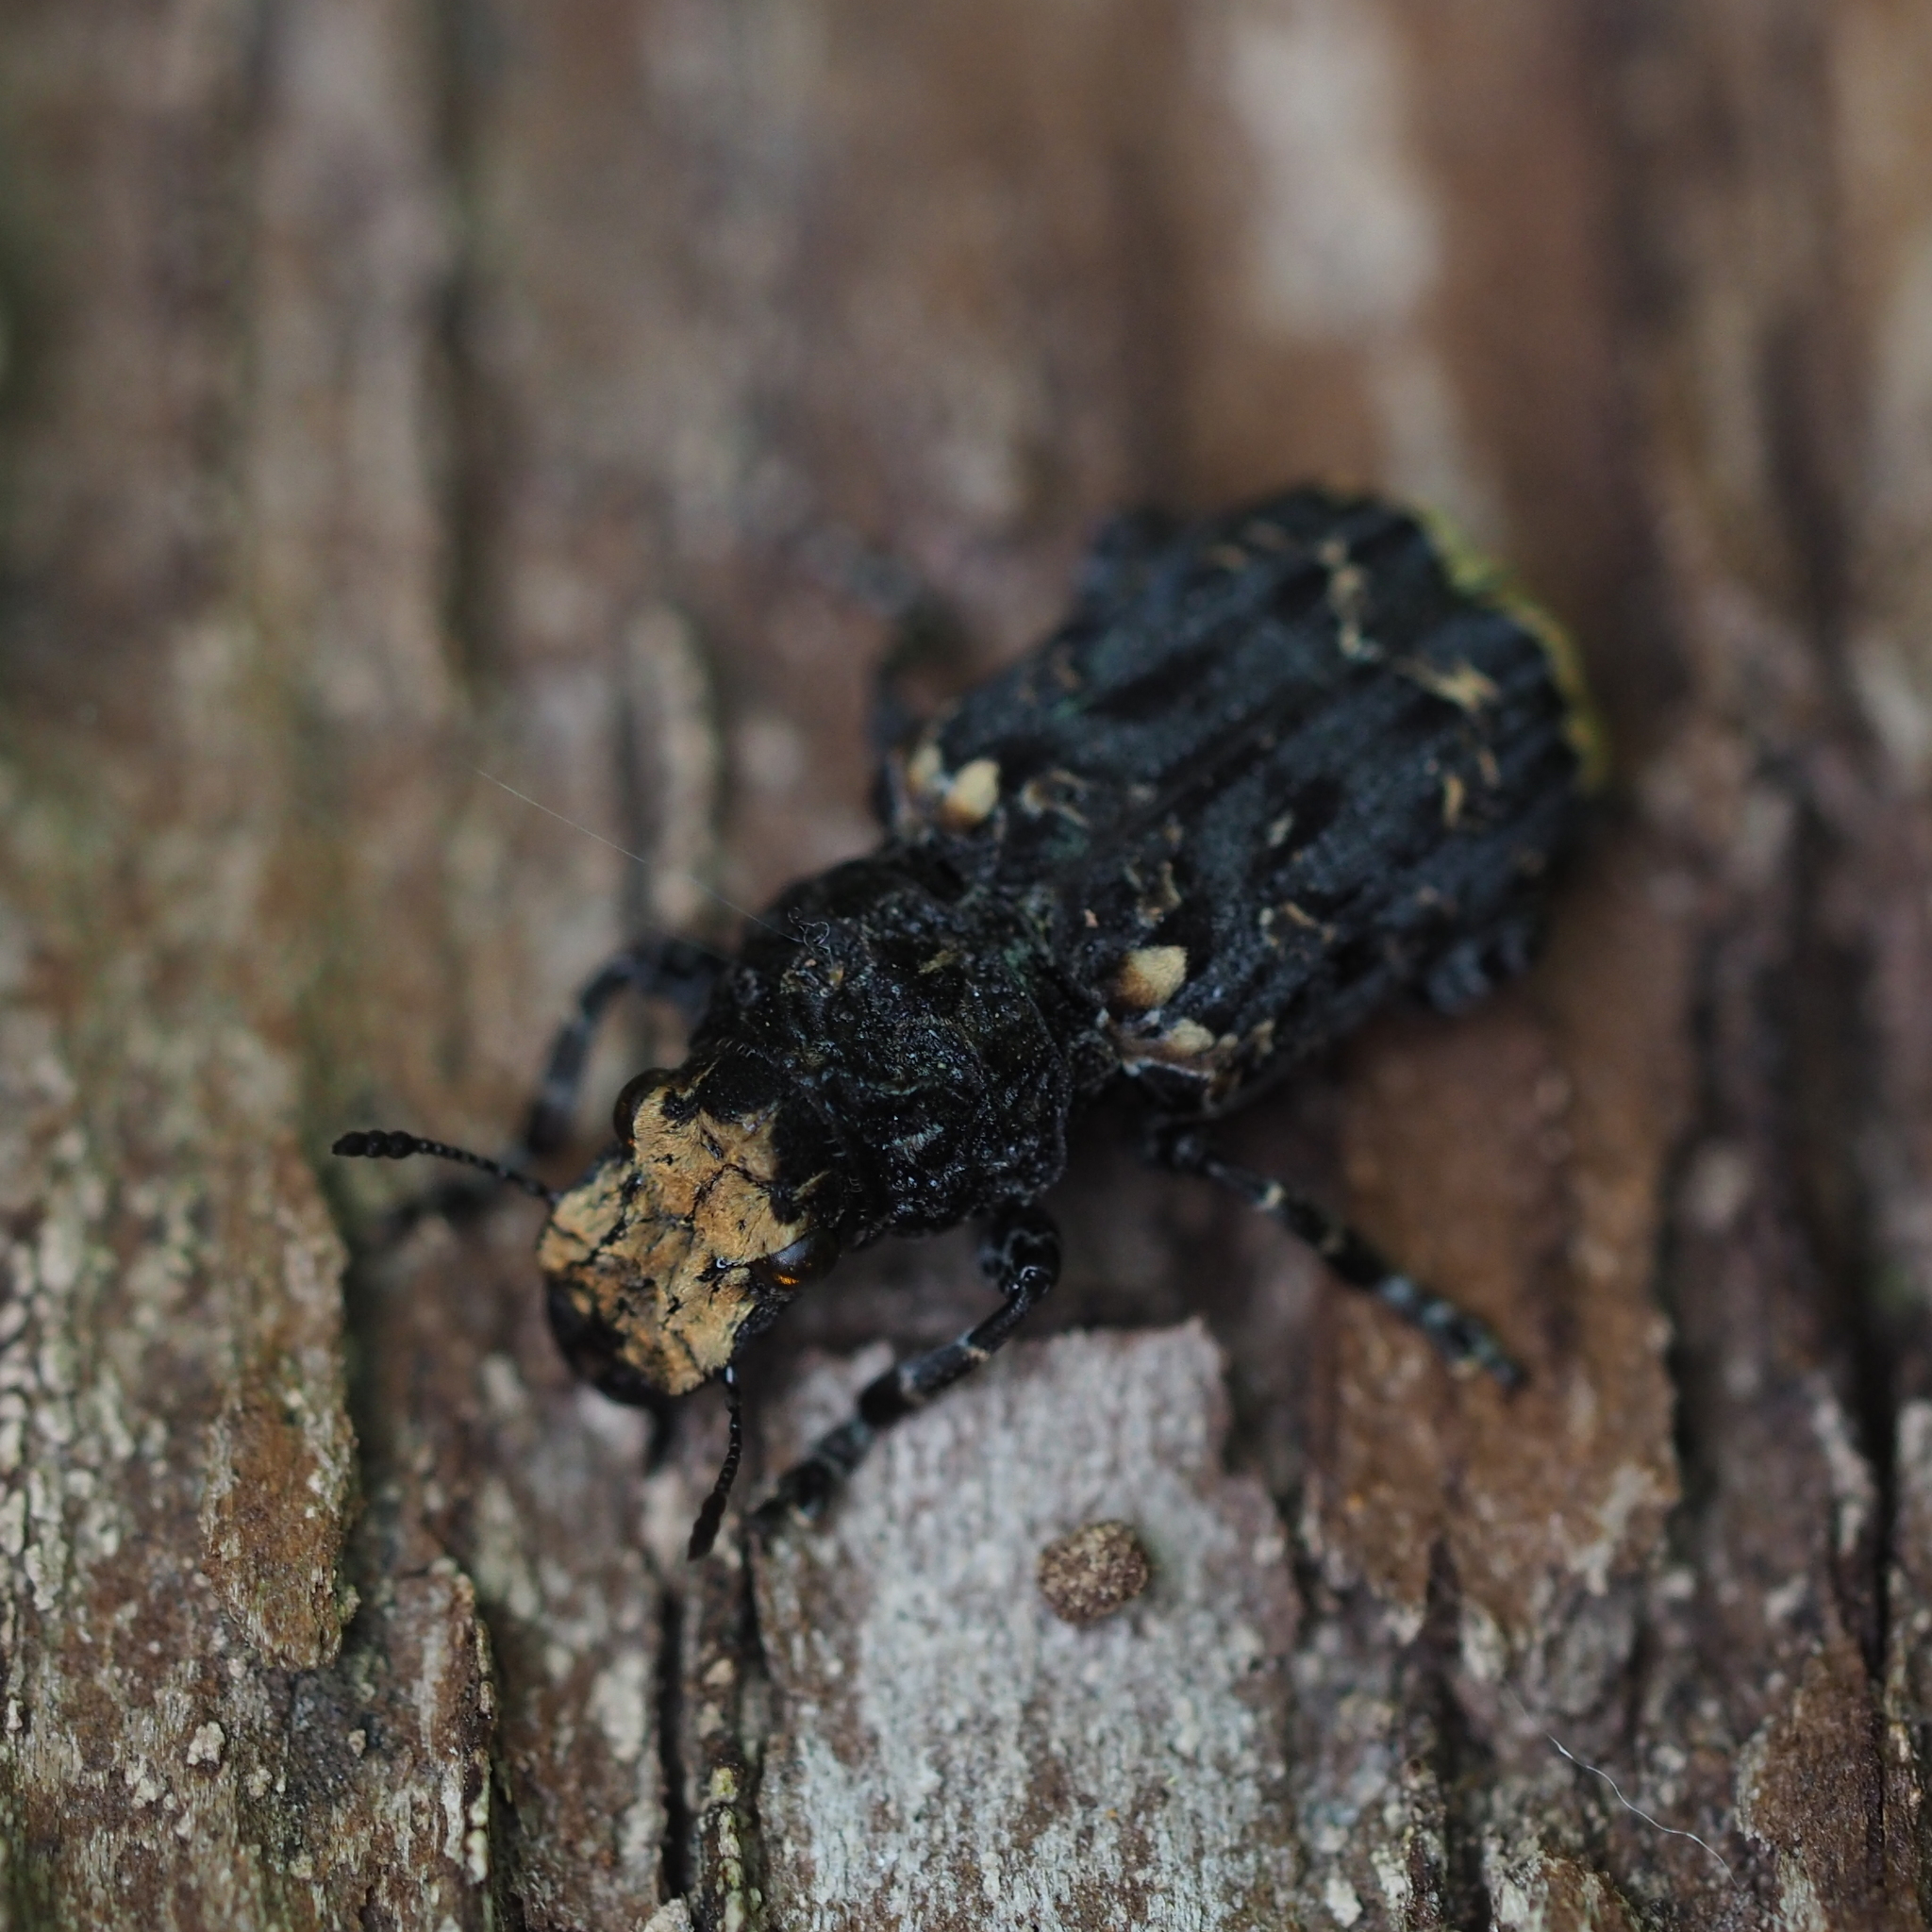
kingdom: Animalia
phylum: Arthropoda
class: Insecta
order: Coleoptera
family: Anthribidae
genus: Platyrhinus
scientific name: Platyrhinus resinosus
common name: Cramp-ball fungus weevil
